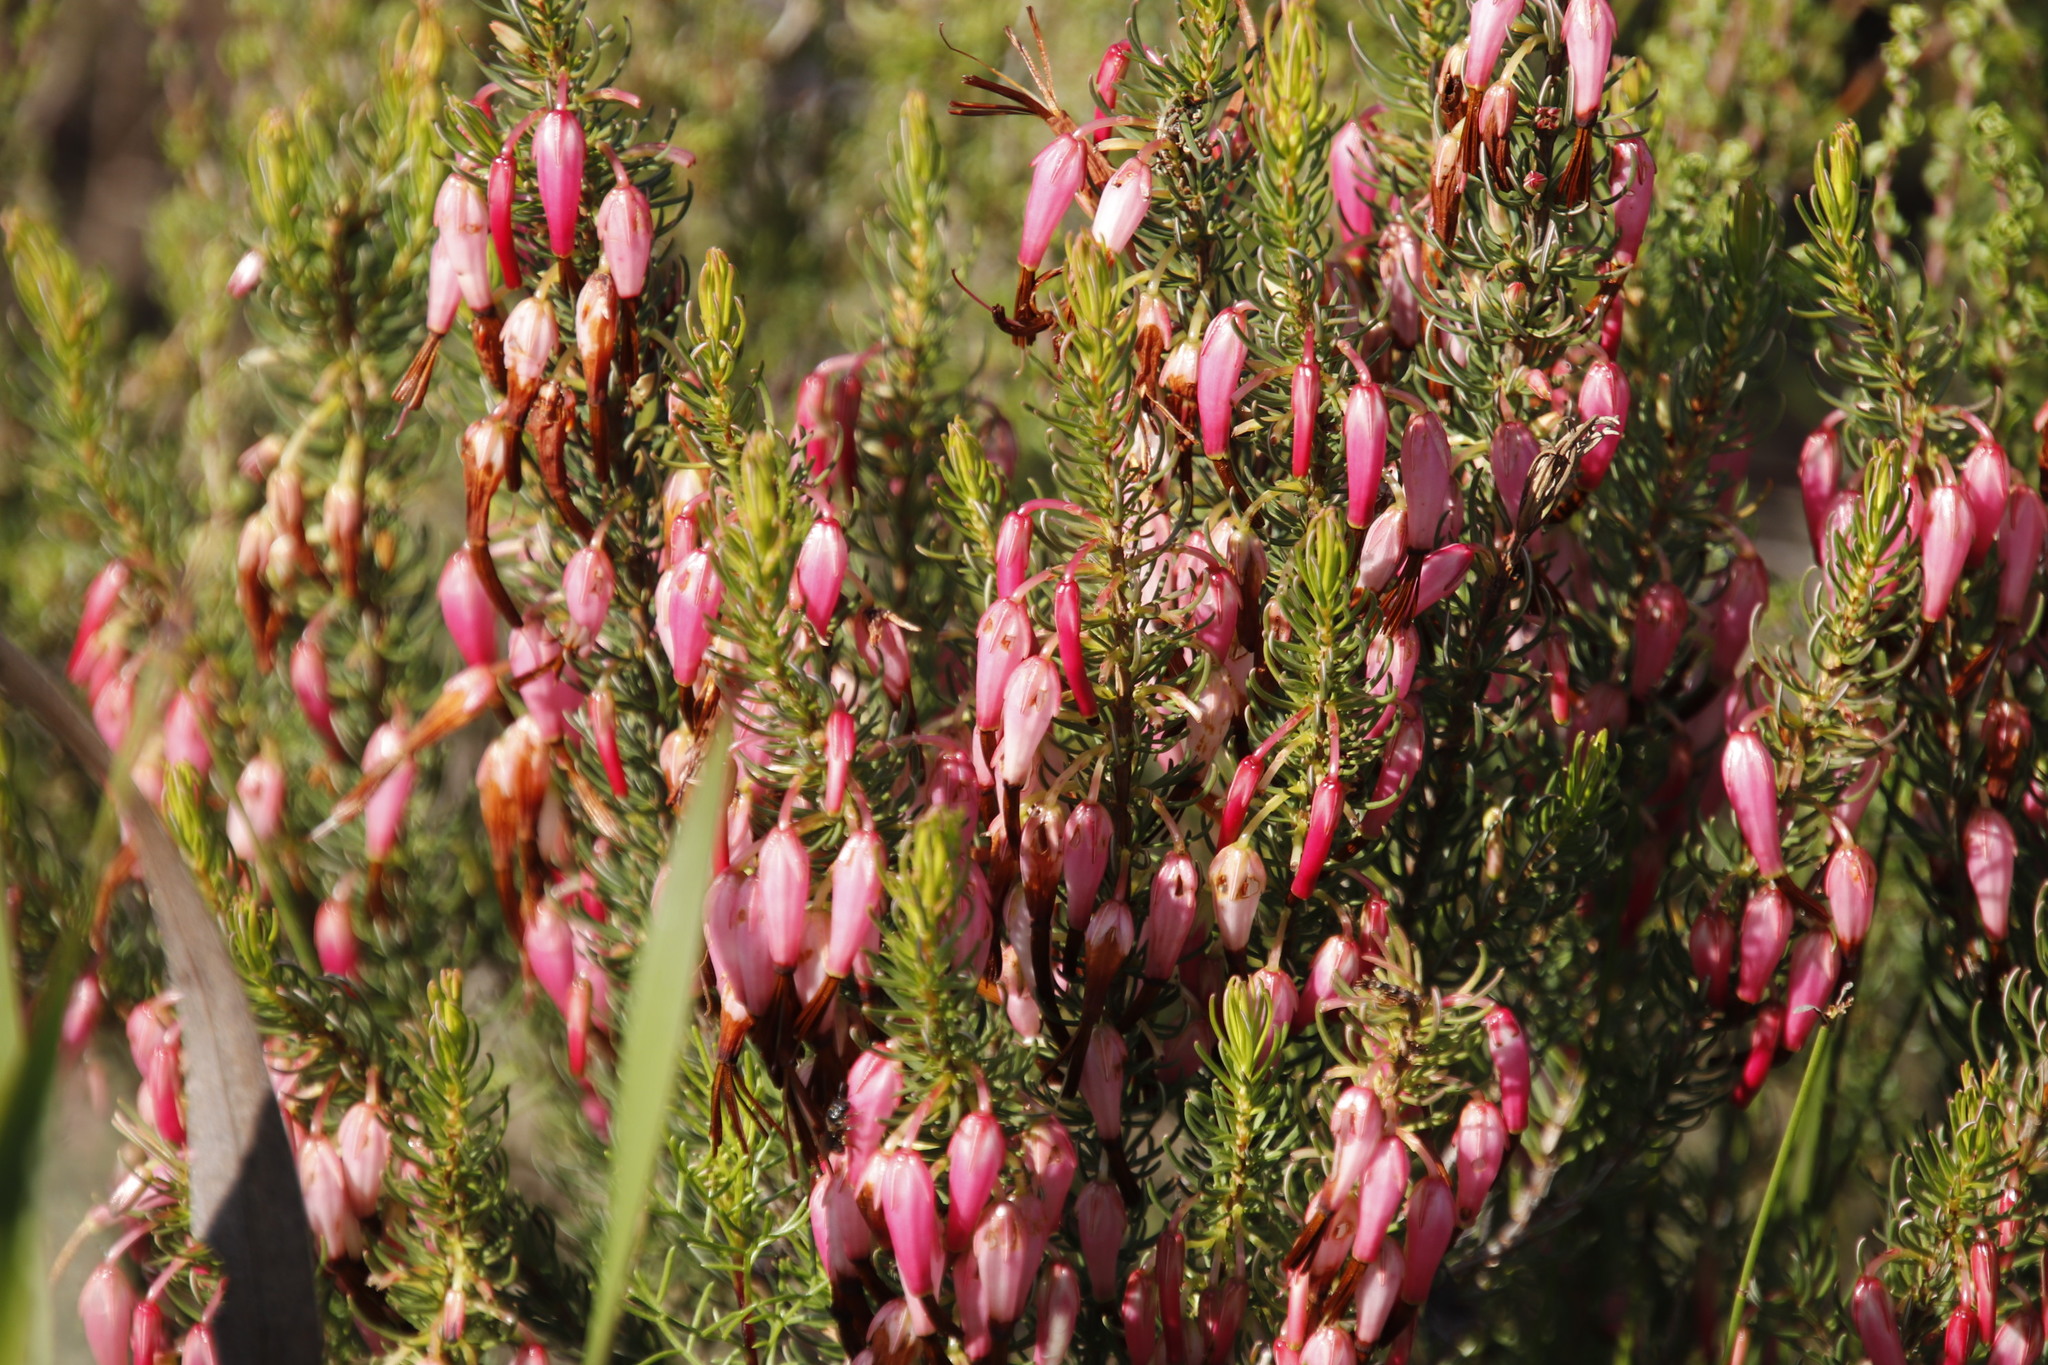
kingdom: Plantae
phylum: Tracheophyta
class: Magnoliopsida
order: Ericales
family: Ericaceae
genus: Erica
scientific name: Erica plukenetii
